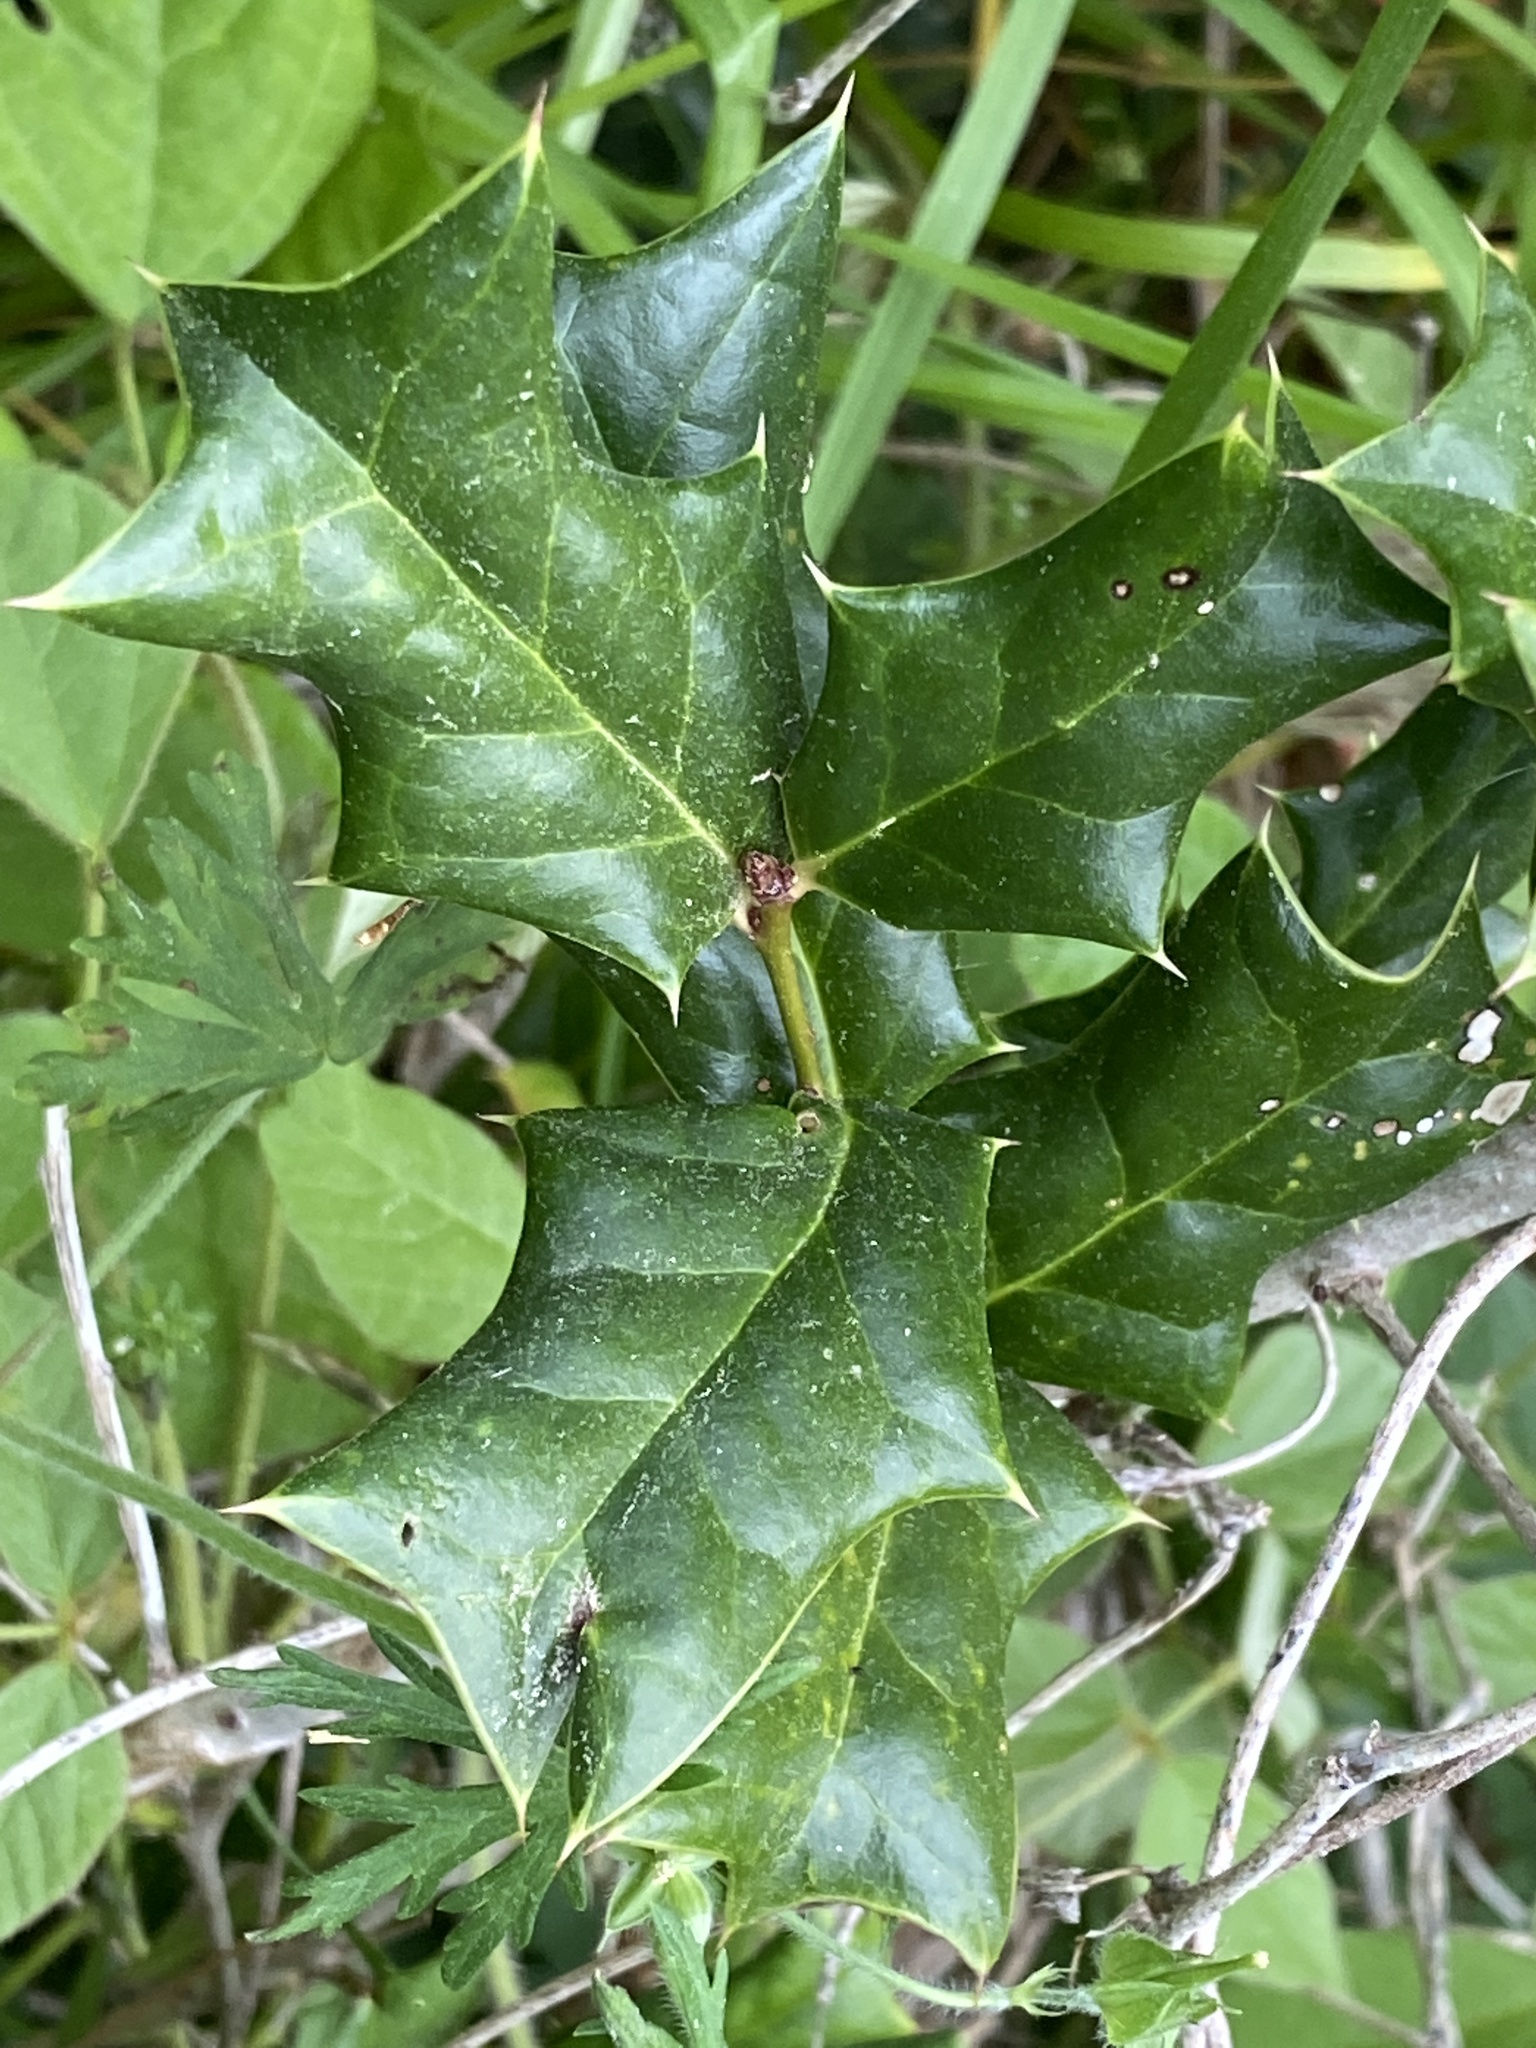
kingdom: Plantae
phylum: Tracheophyta
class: Magnoliopsida
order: Aquifoliales
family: Aquifoliaceae
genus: Ilex
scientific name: Ilex cornuta
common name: Chinese holly
